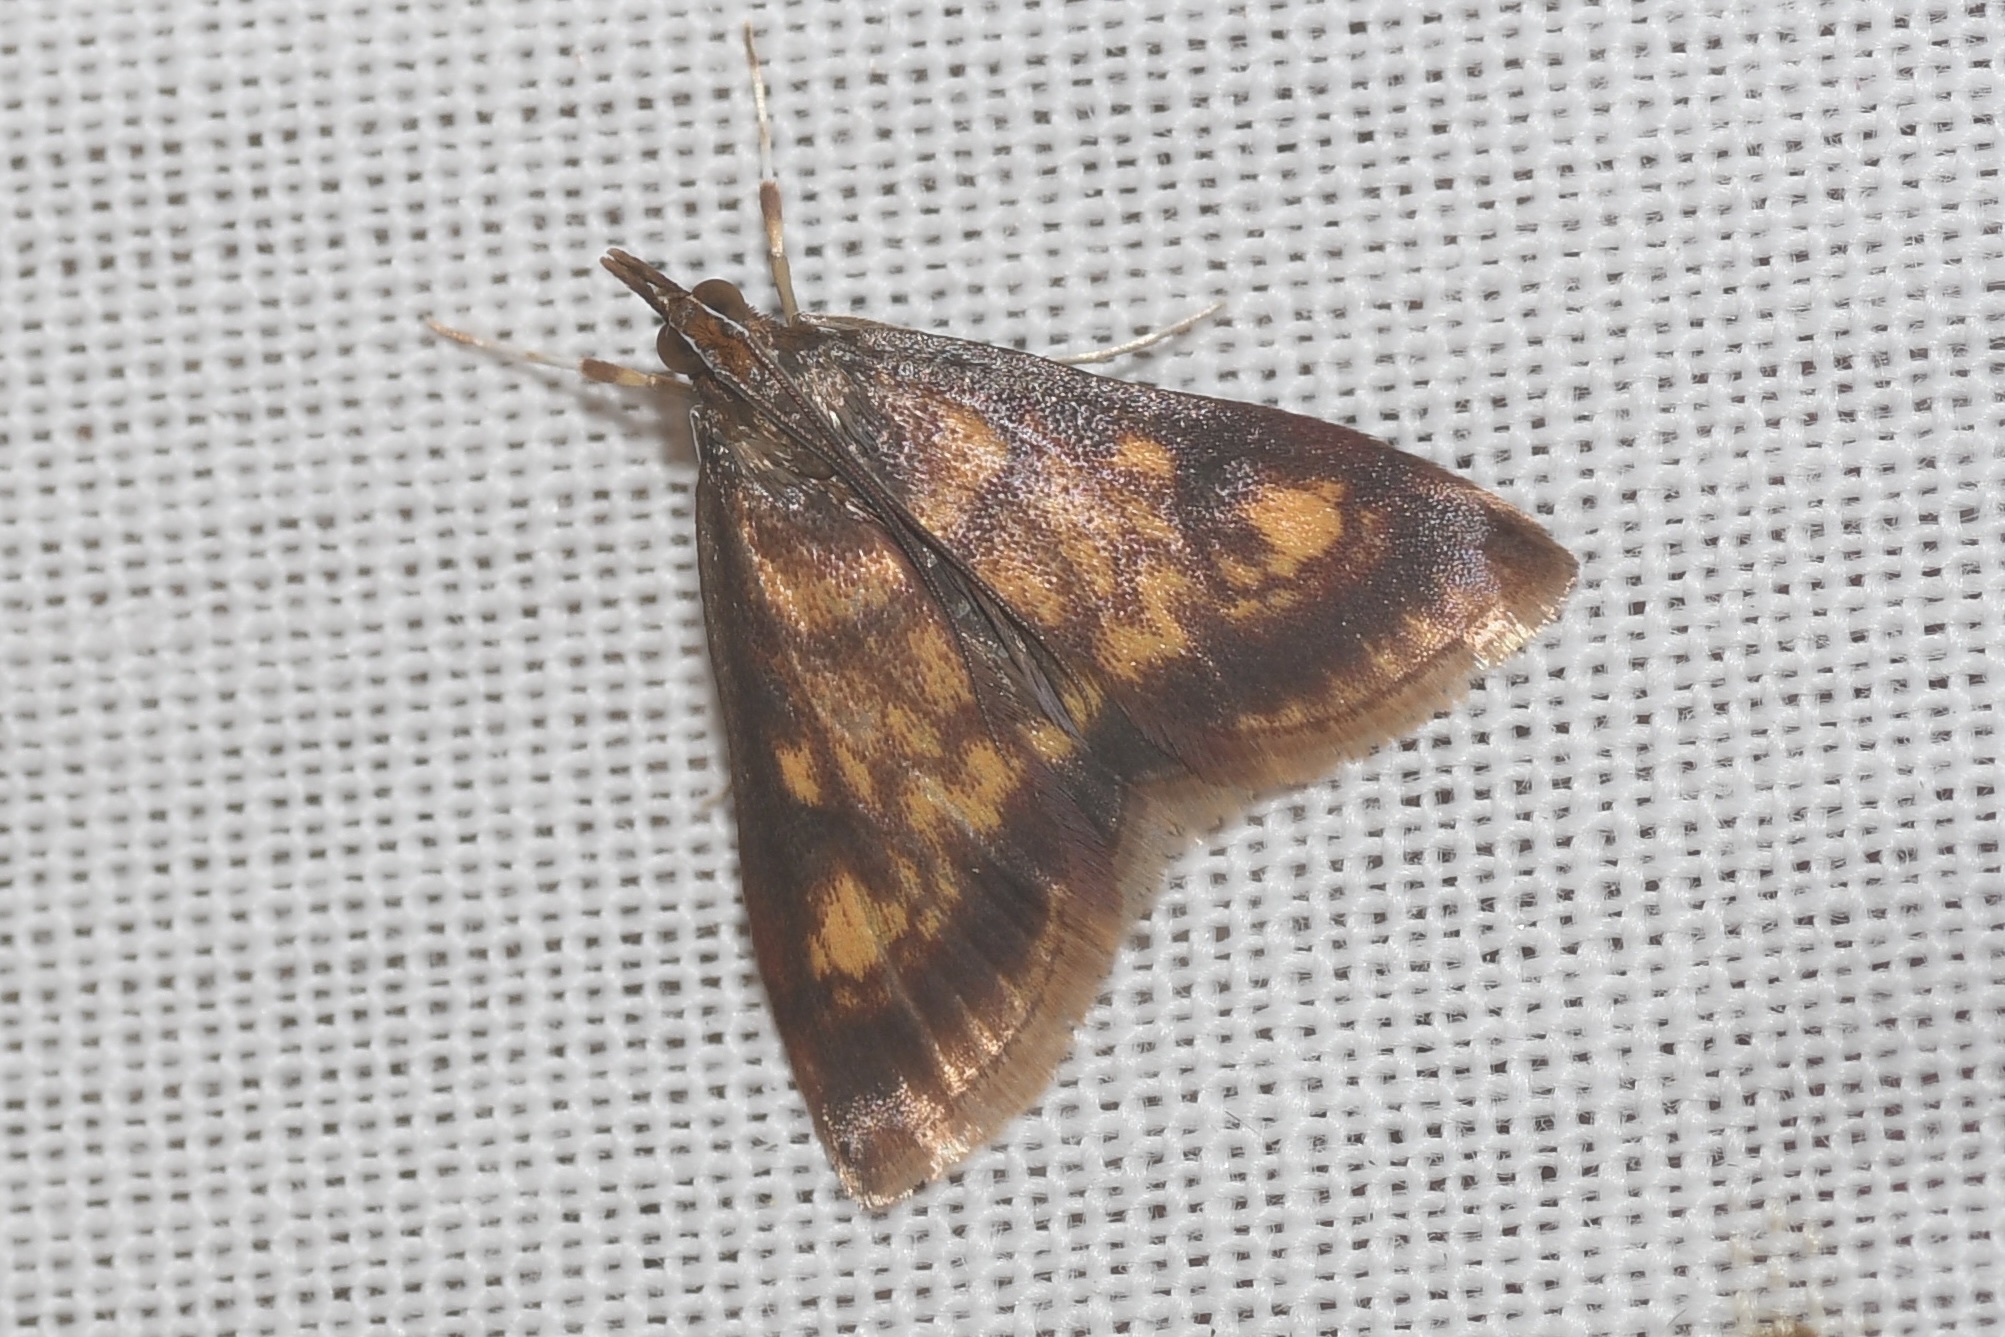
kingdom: Animalia
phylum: Arthropoda
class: Insecta
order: Lepidoptera
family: Crambidae
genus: Pyrausta
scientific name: Pyrausta acrionalis
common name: Mint-loving pyrausta moth
